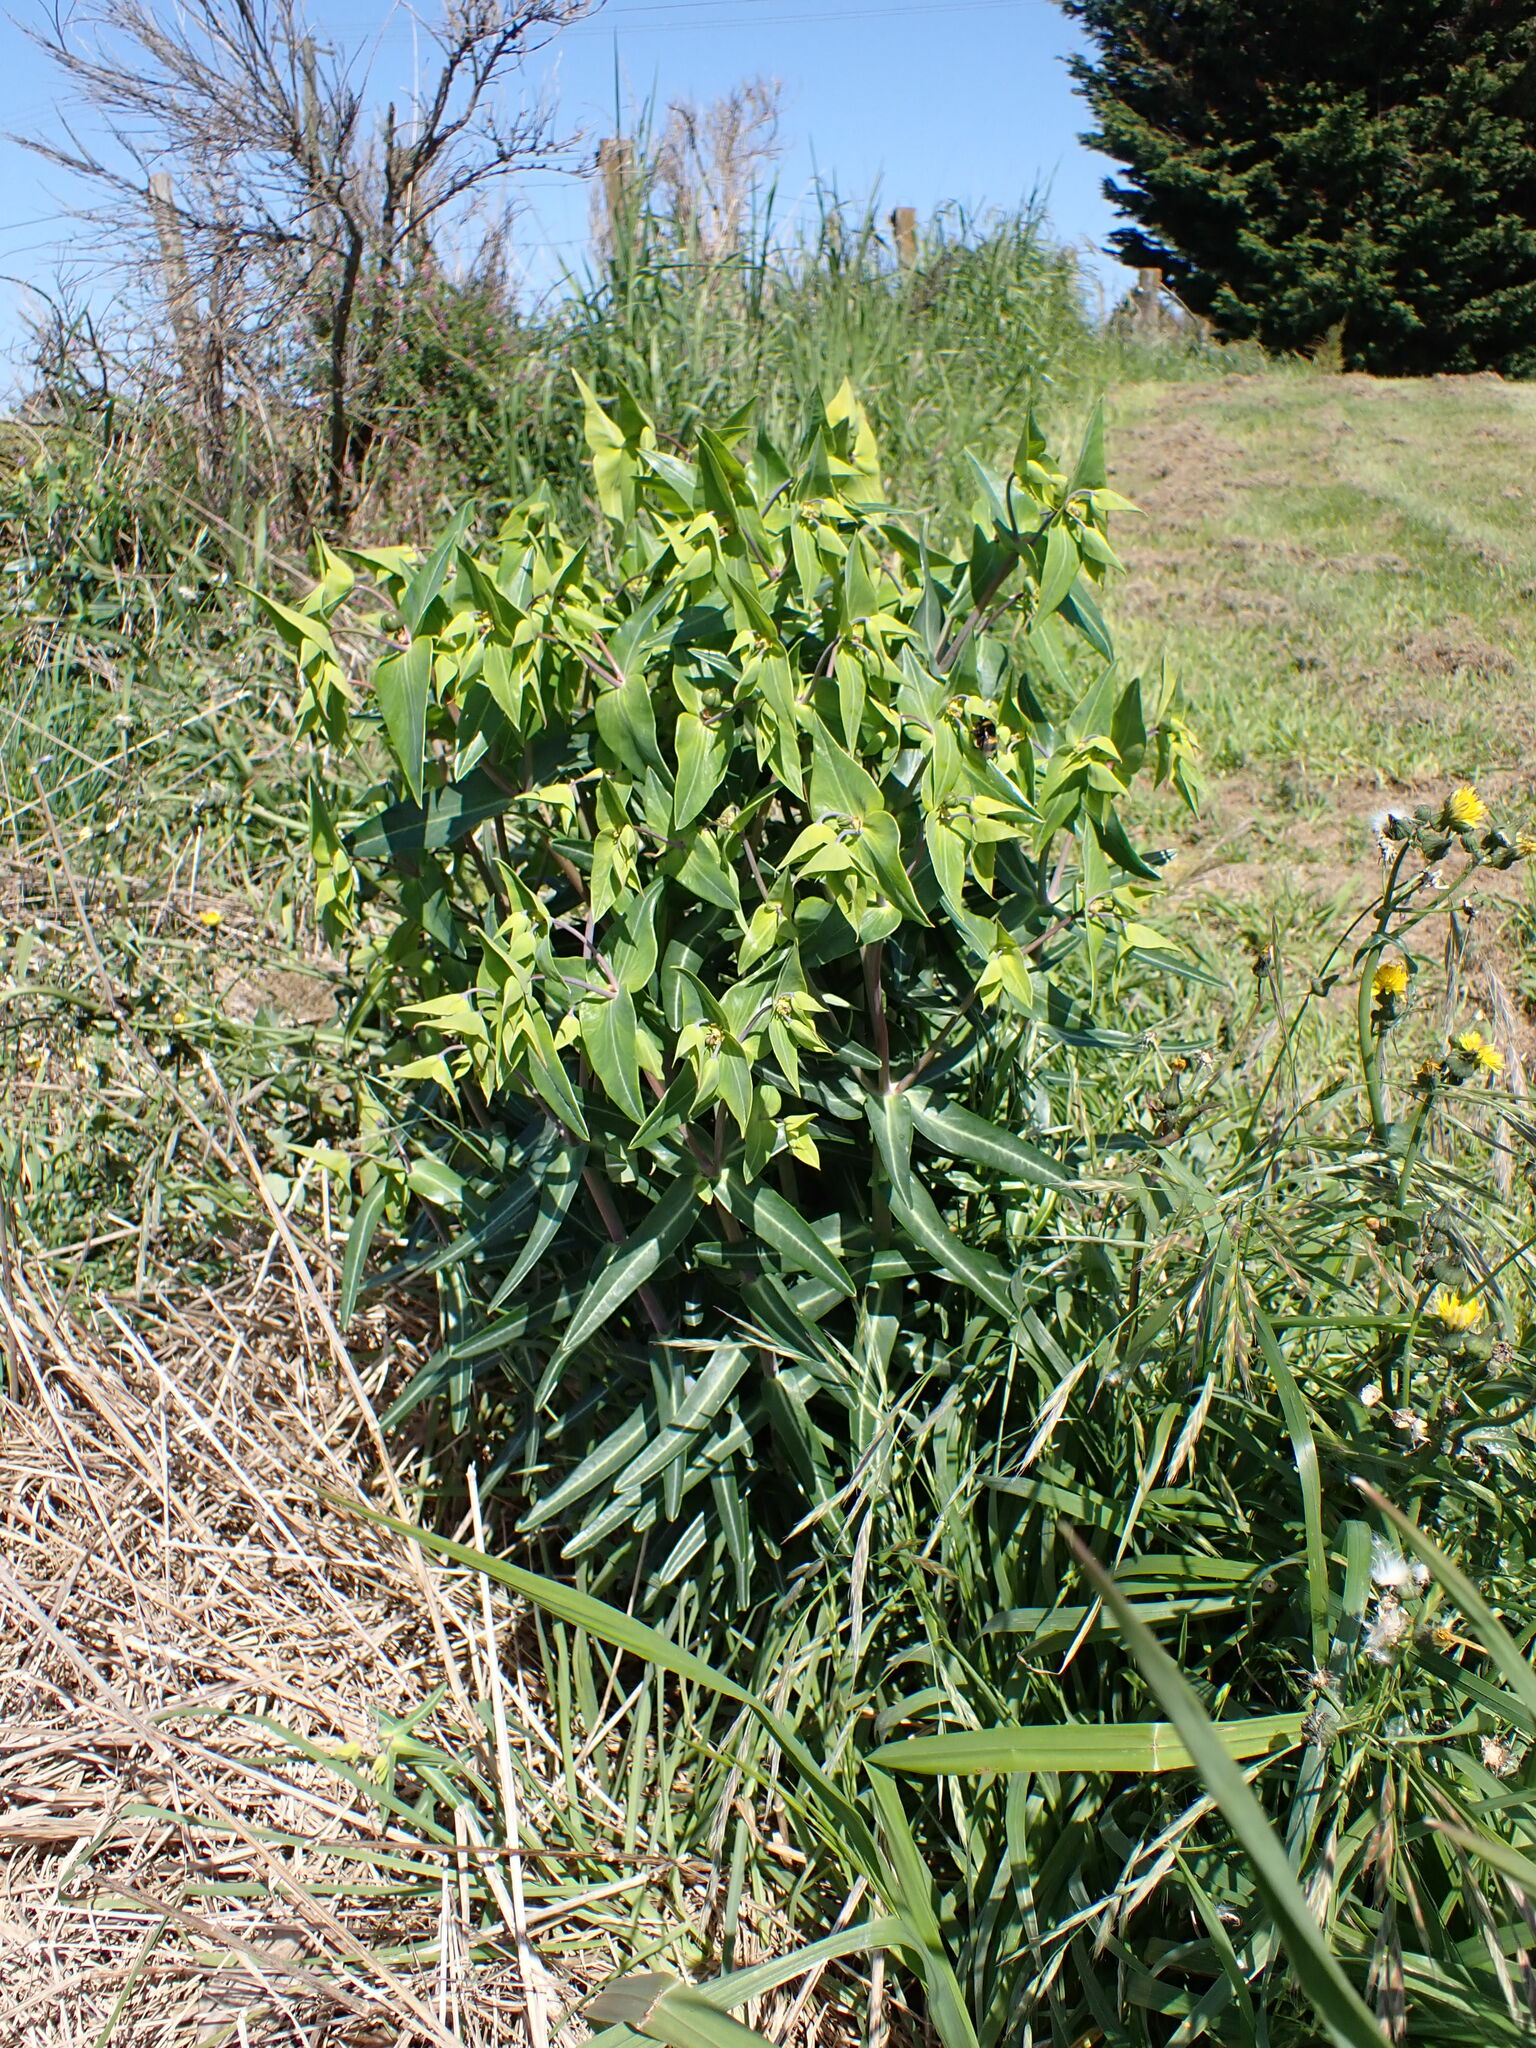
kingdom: Plantae
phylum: Tracheophyta
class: Magnoliopsida
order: Malpighiales
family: Euphorbiaceae
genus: Euphorbia
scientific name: Euphorbia lathyris
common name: Caper spurge
